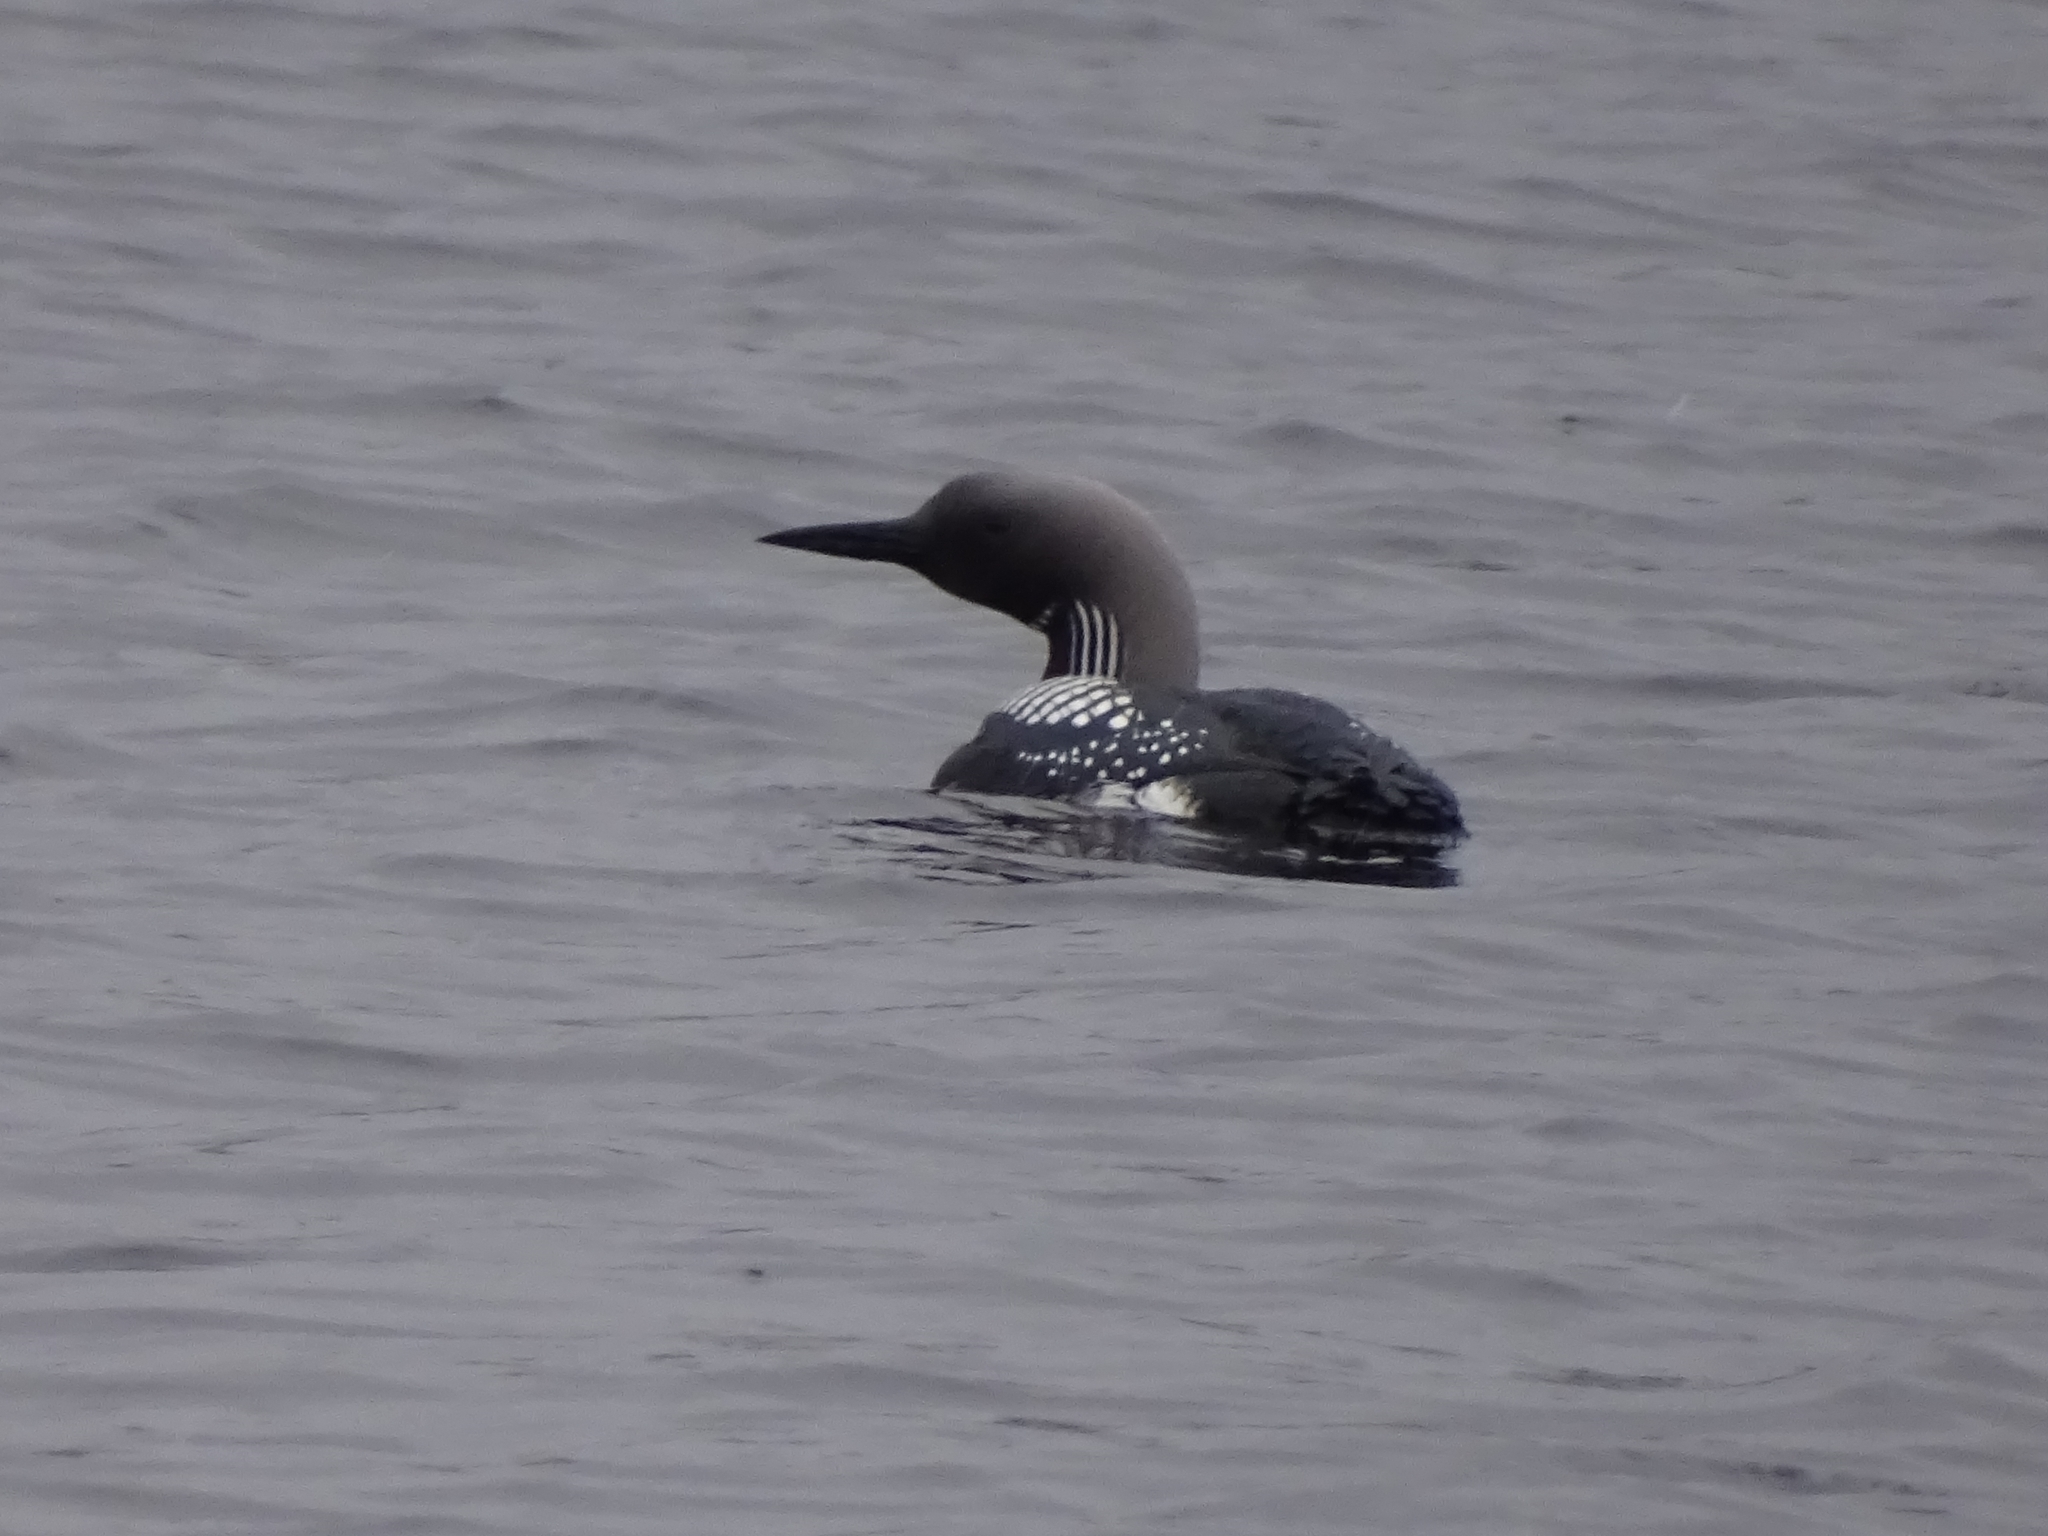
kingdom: Animalia
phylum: Chordata
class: Aves
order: Gaviiformes
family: Gaviidae
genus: Gavia
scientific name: Gavia arctica
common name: Black-throated loon
